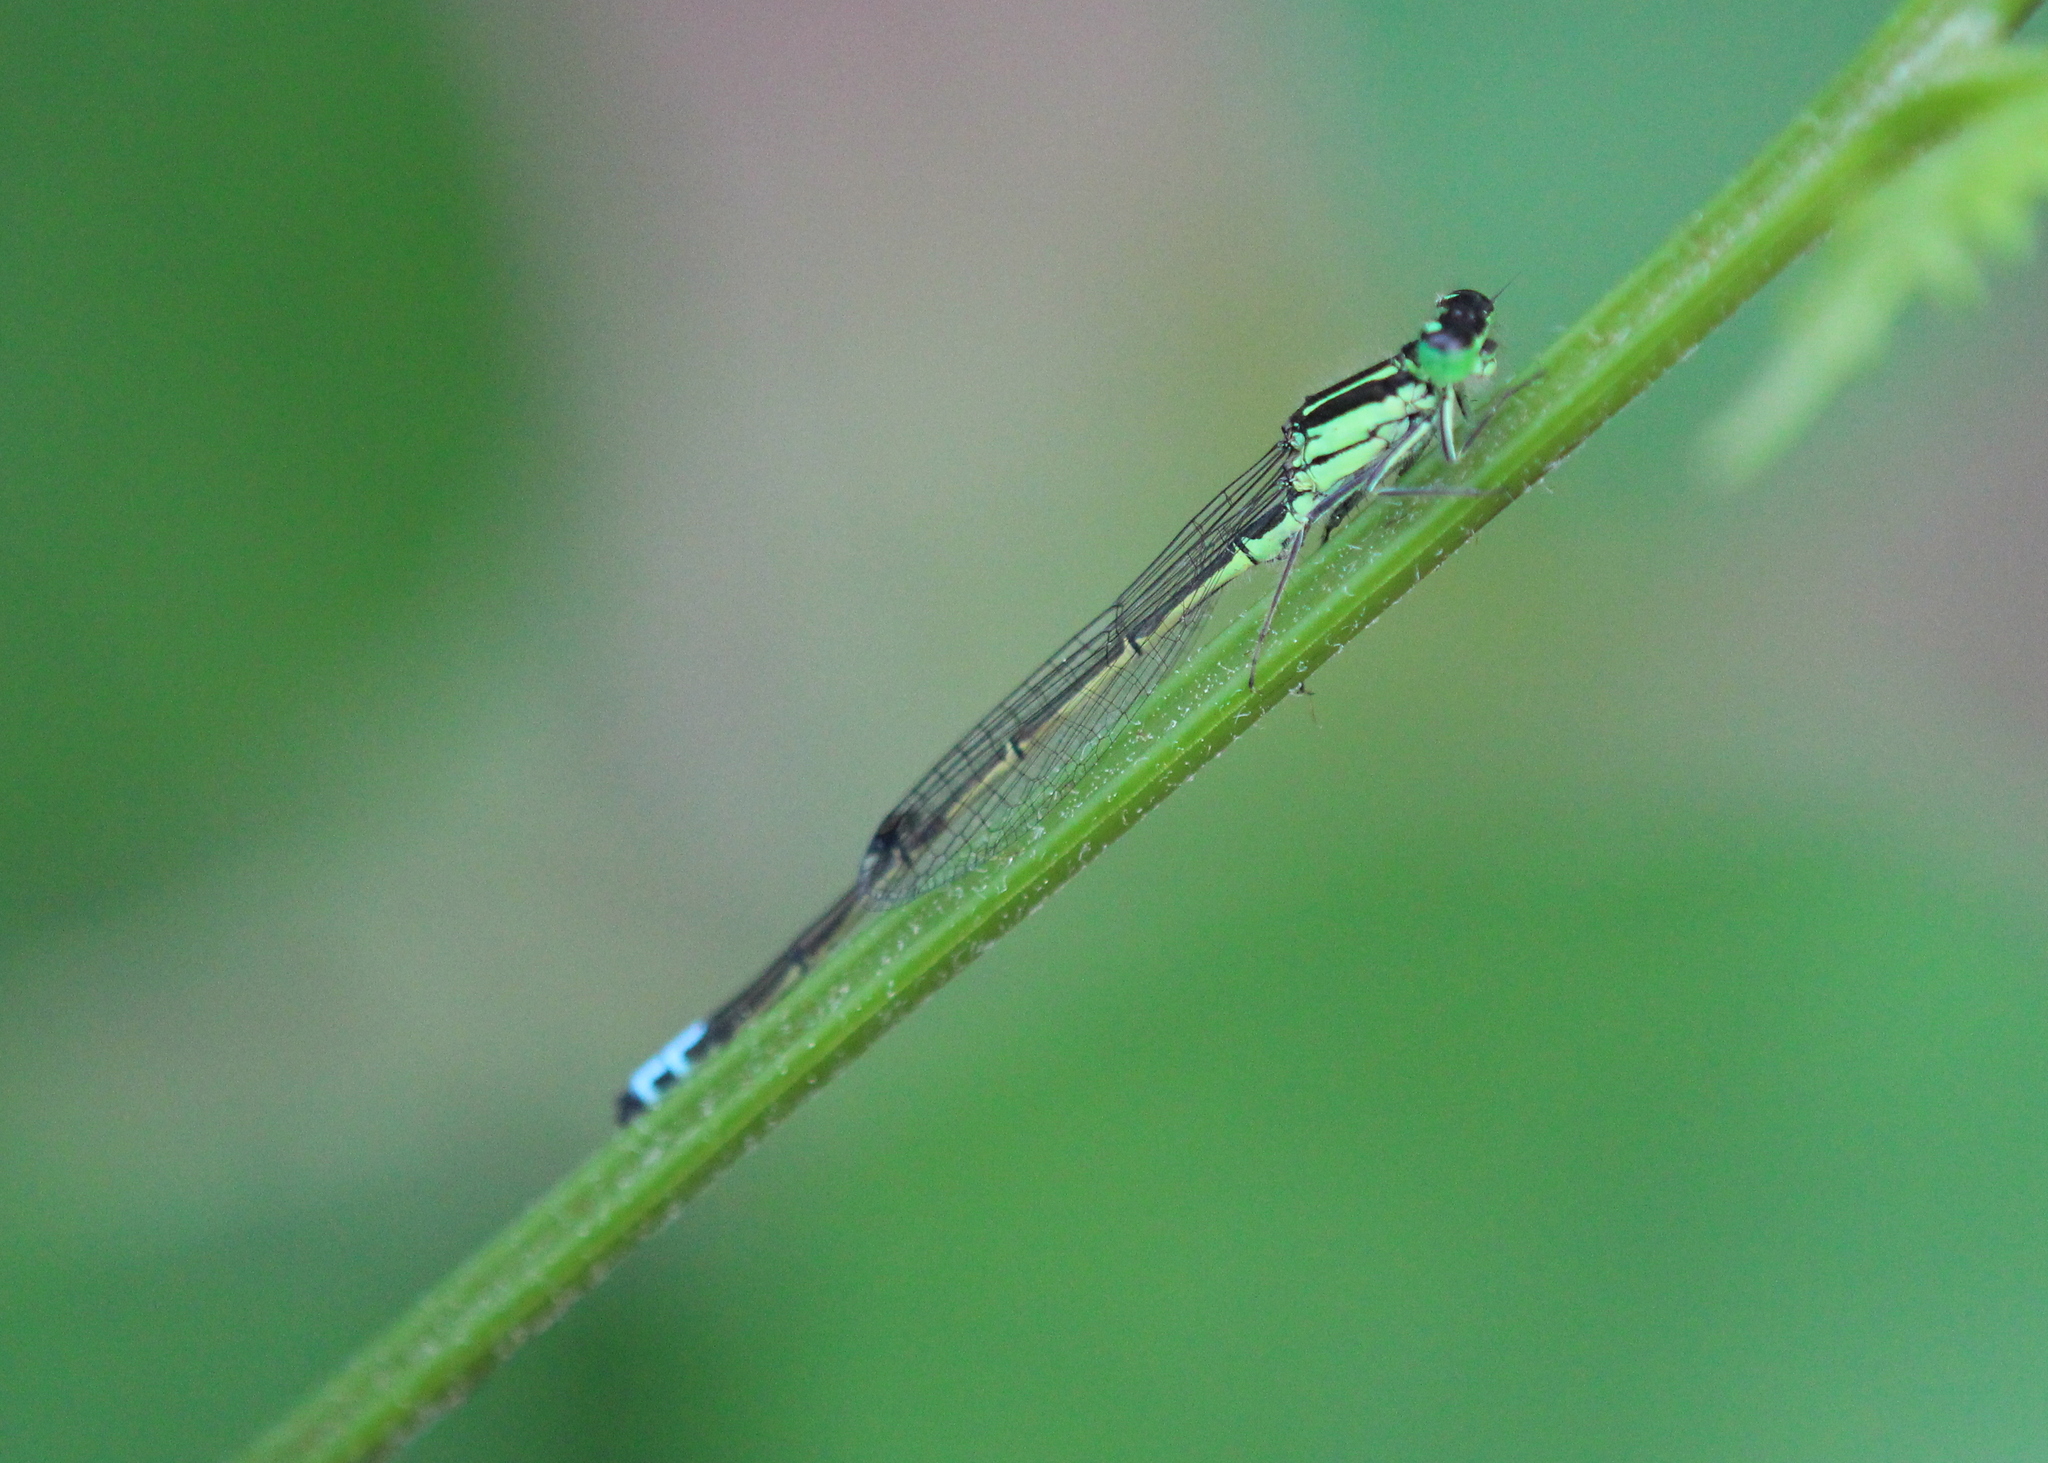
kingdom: Animalia
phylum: Arthropoda
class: Insecta
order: Odonata
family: Coenagrionidae
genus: Ischnura
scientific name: Ischnura verticalis
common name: Eastern forktail
